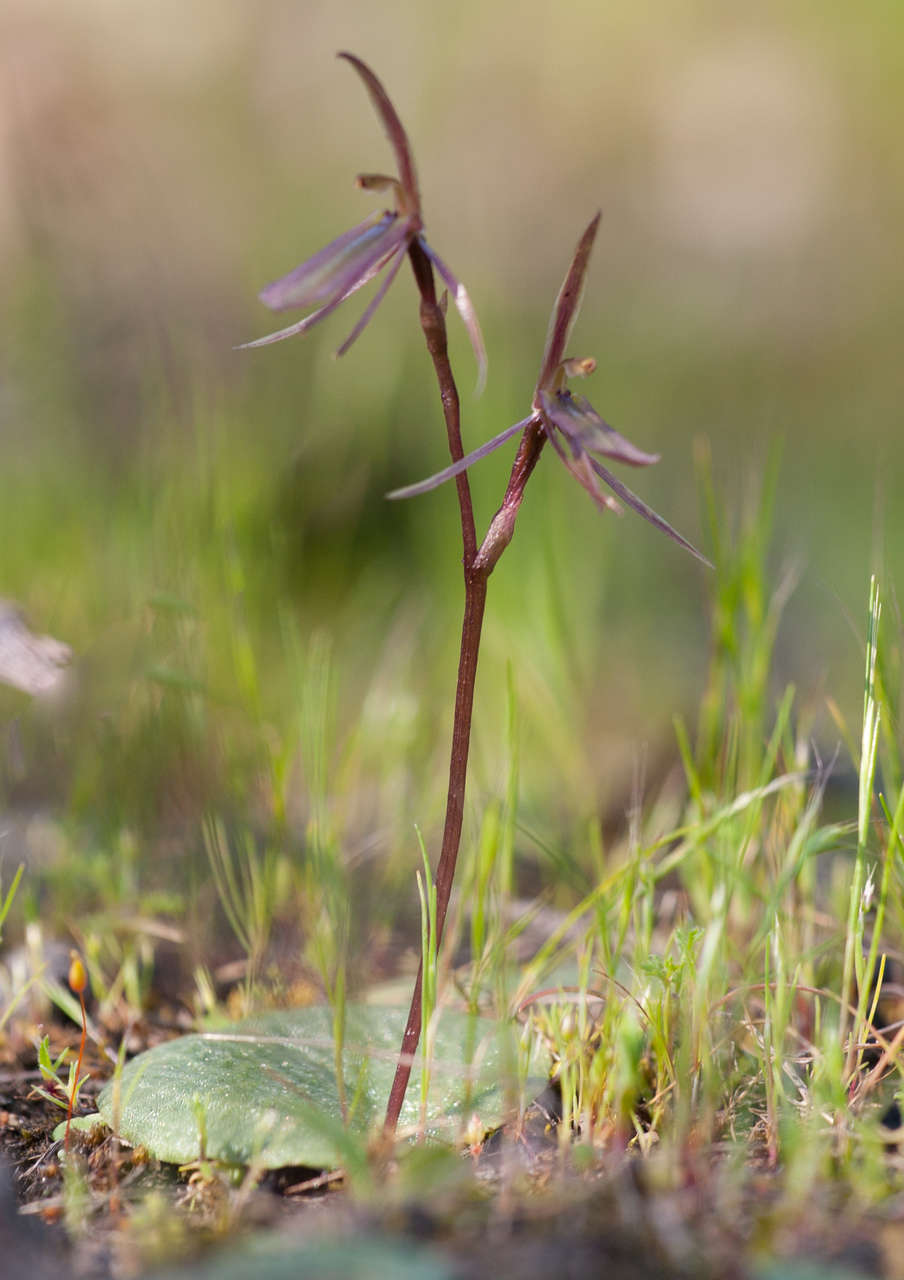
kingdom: Plantae
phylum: Tracheophyta
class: Liliopsida
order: Asparagales
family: Orchidaceae
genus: Cyrtostylis
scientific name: Cyrtostylis reniformis
